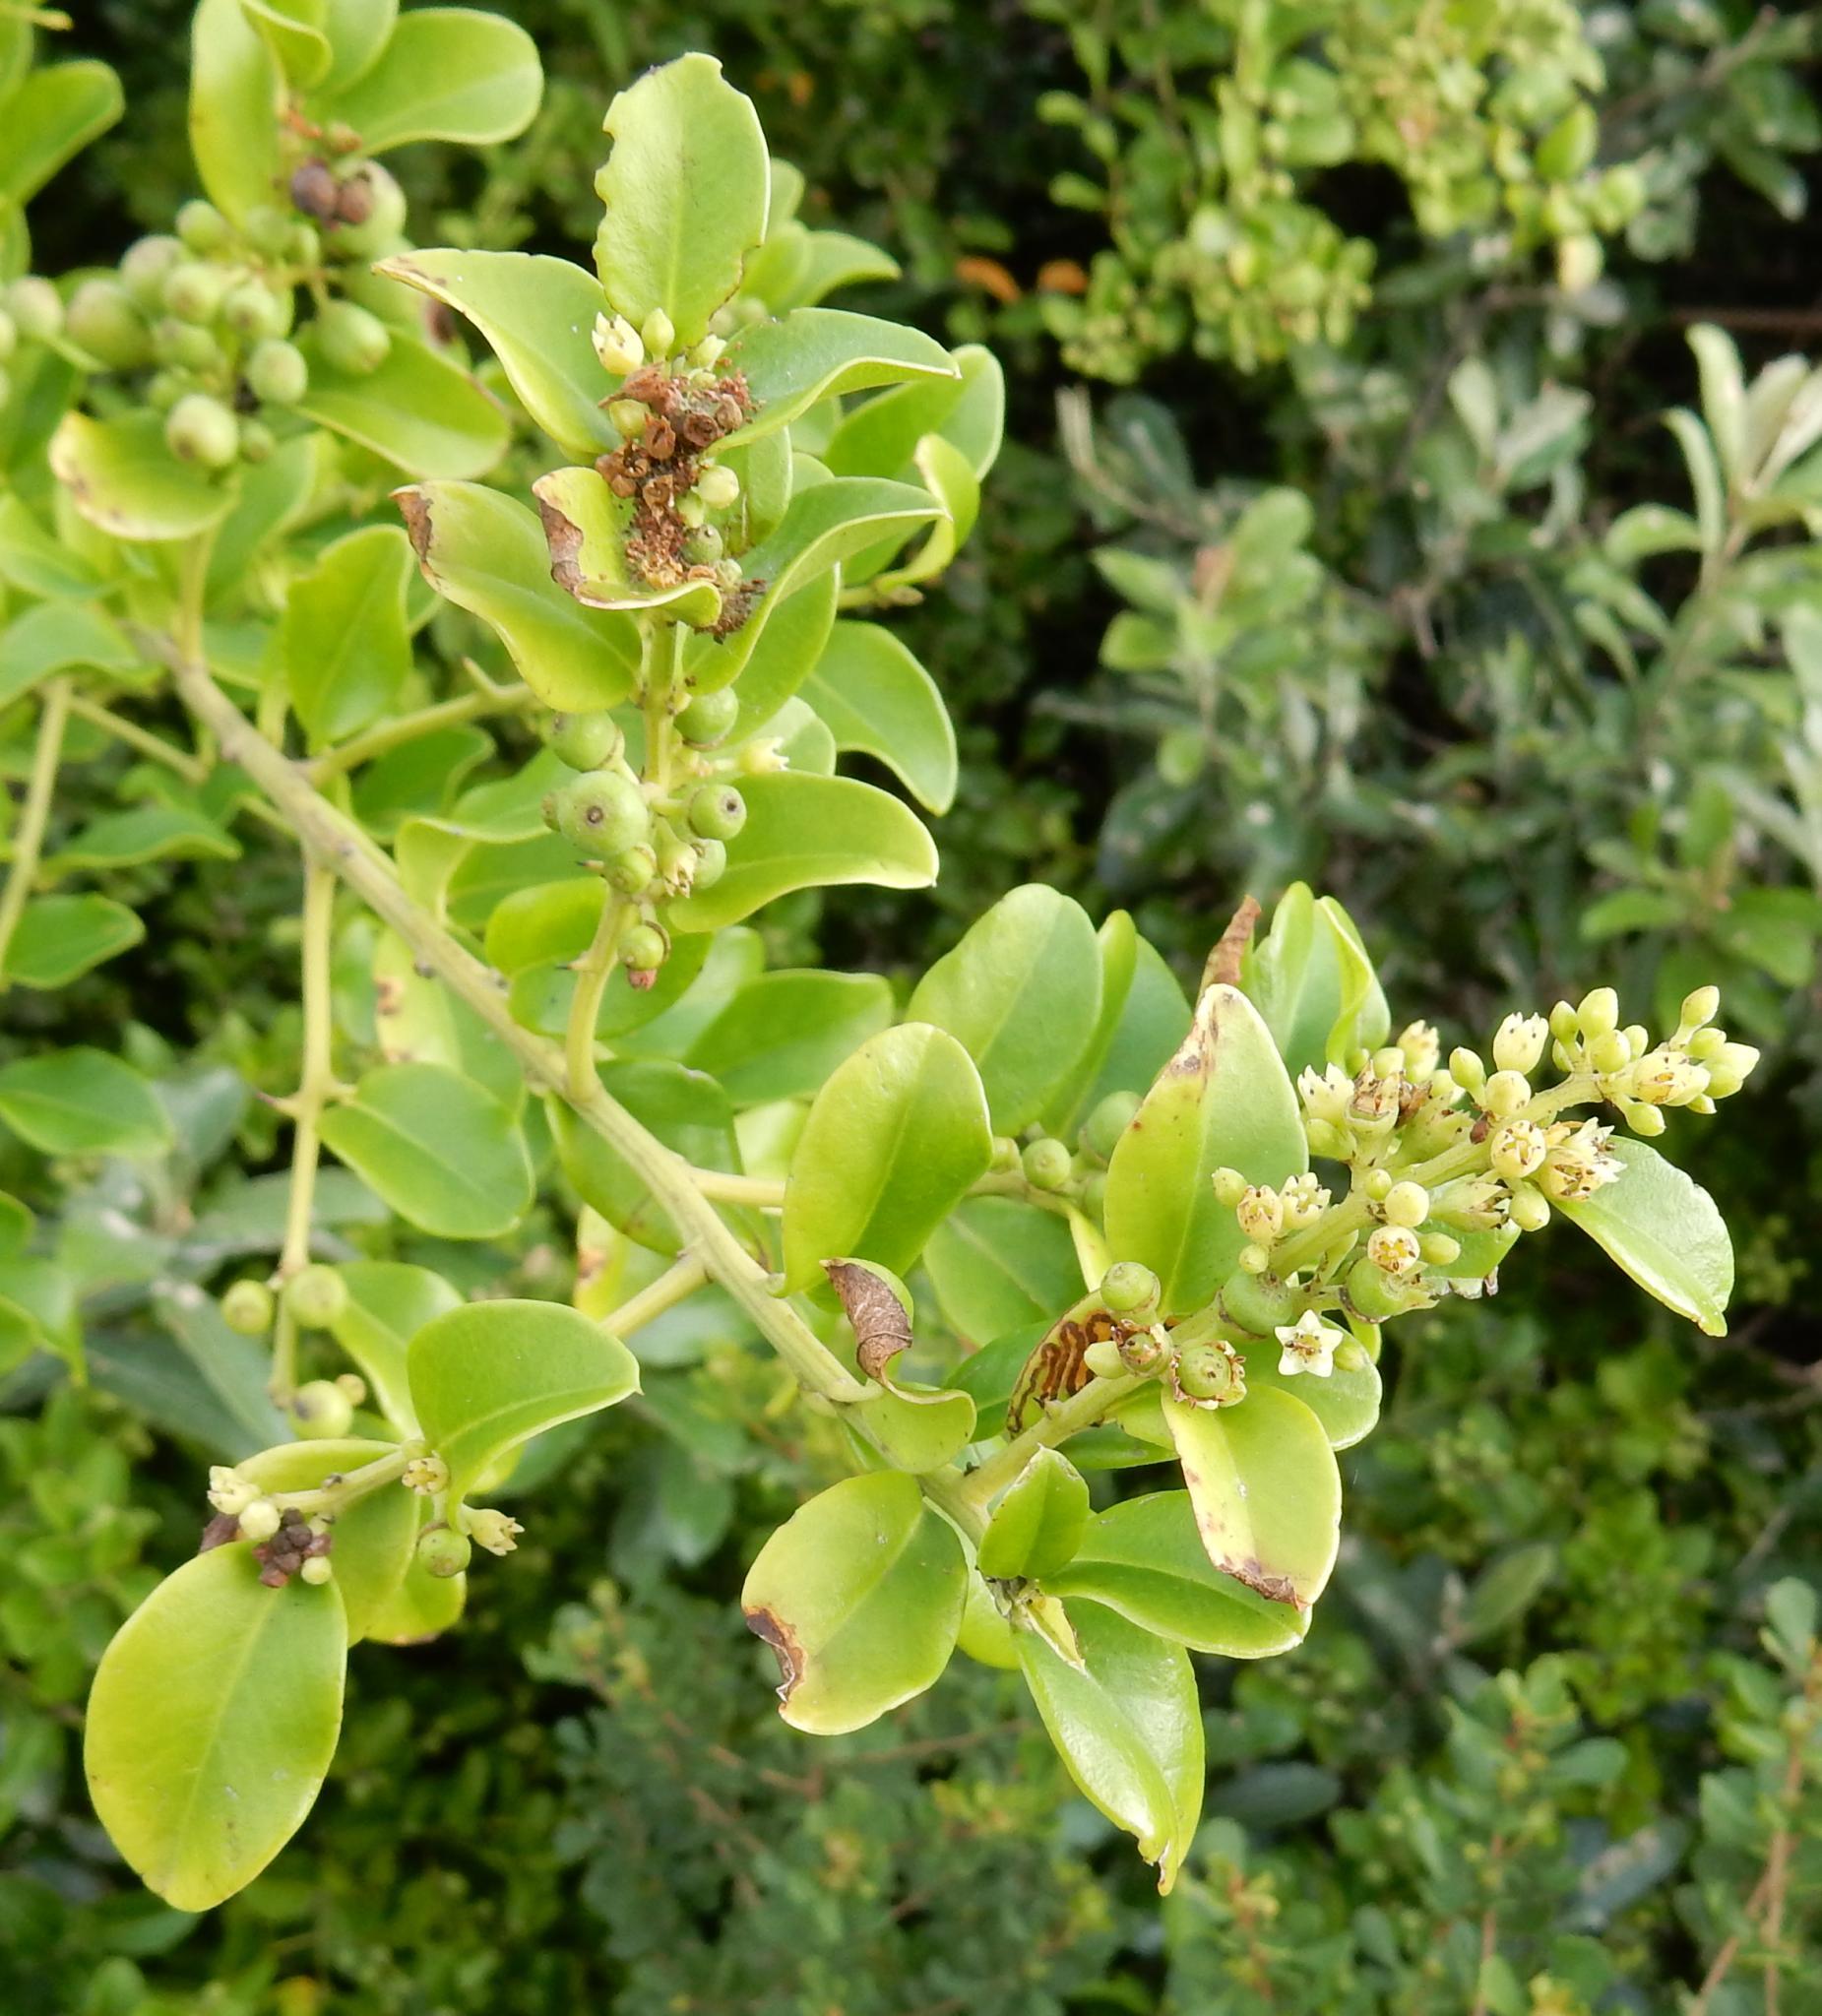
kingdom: Plantae
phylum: Tracheophyta
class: Magnoliopsida
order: Rosales
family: Rhamnaceae
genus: Scutia
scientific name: Scutia myrtina
